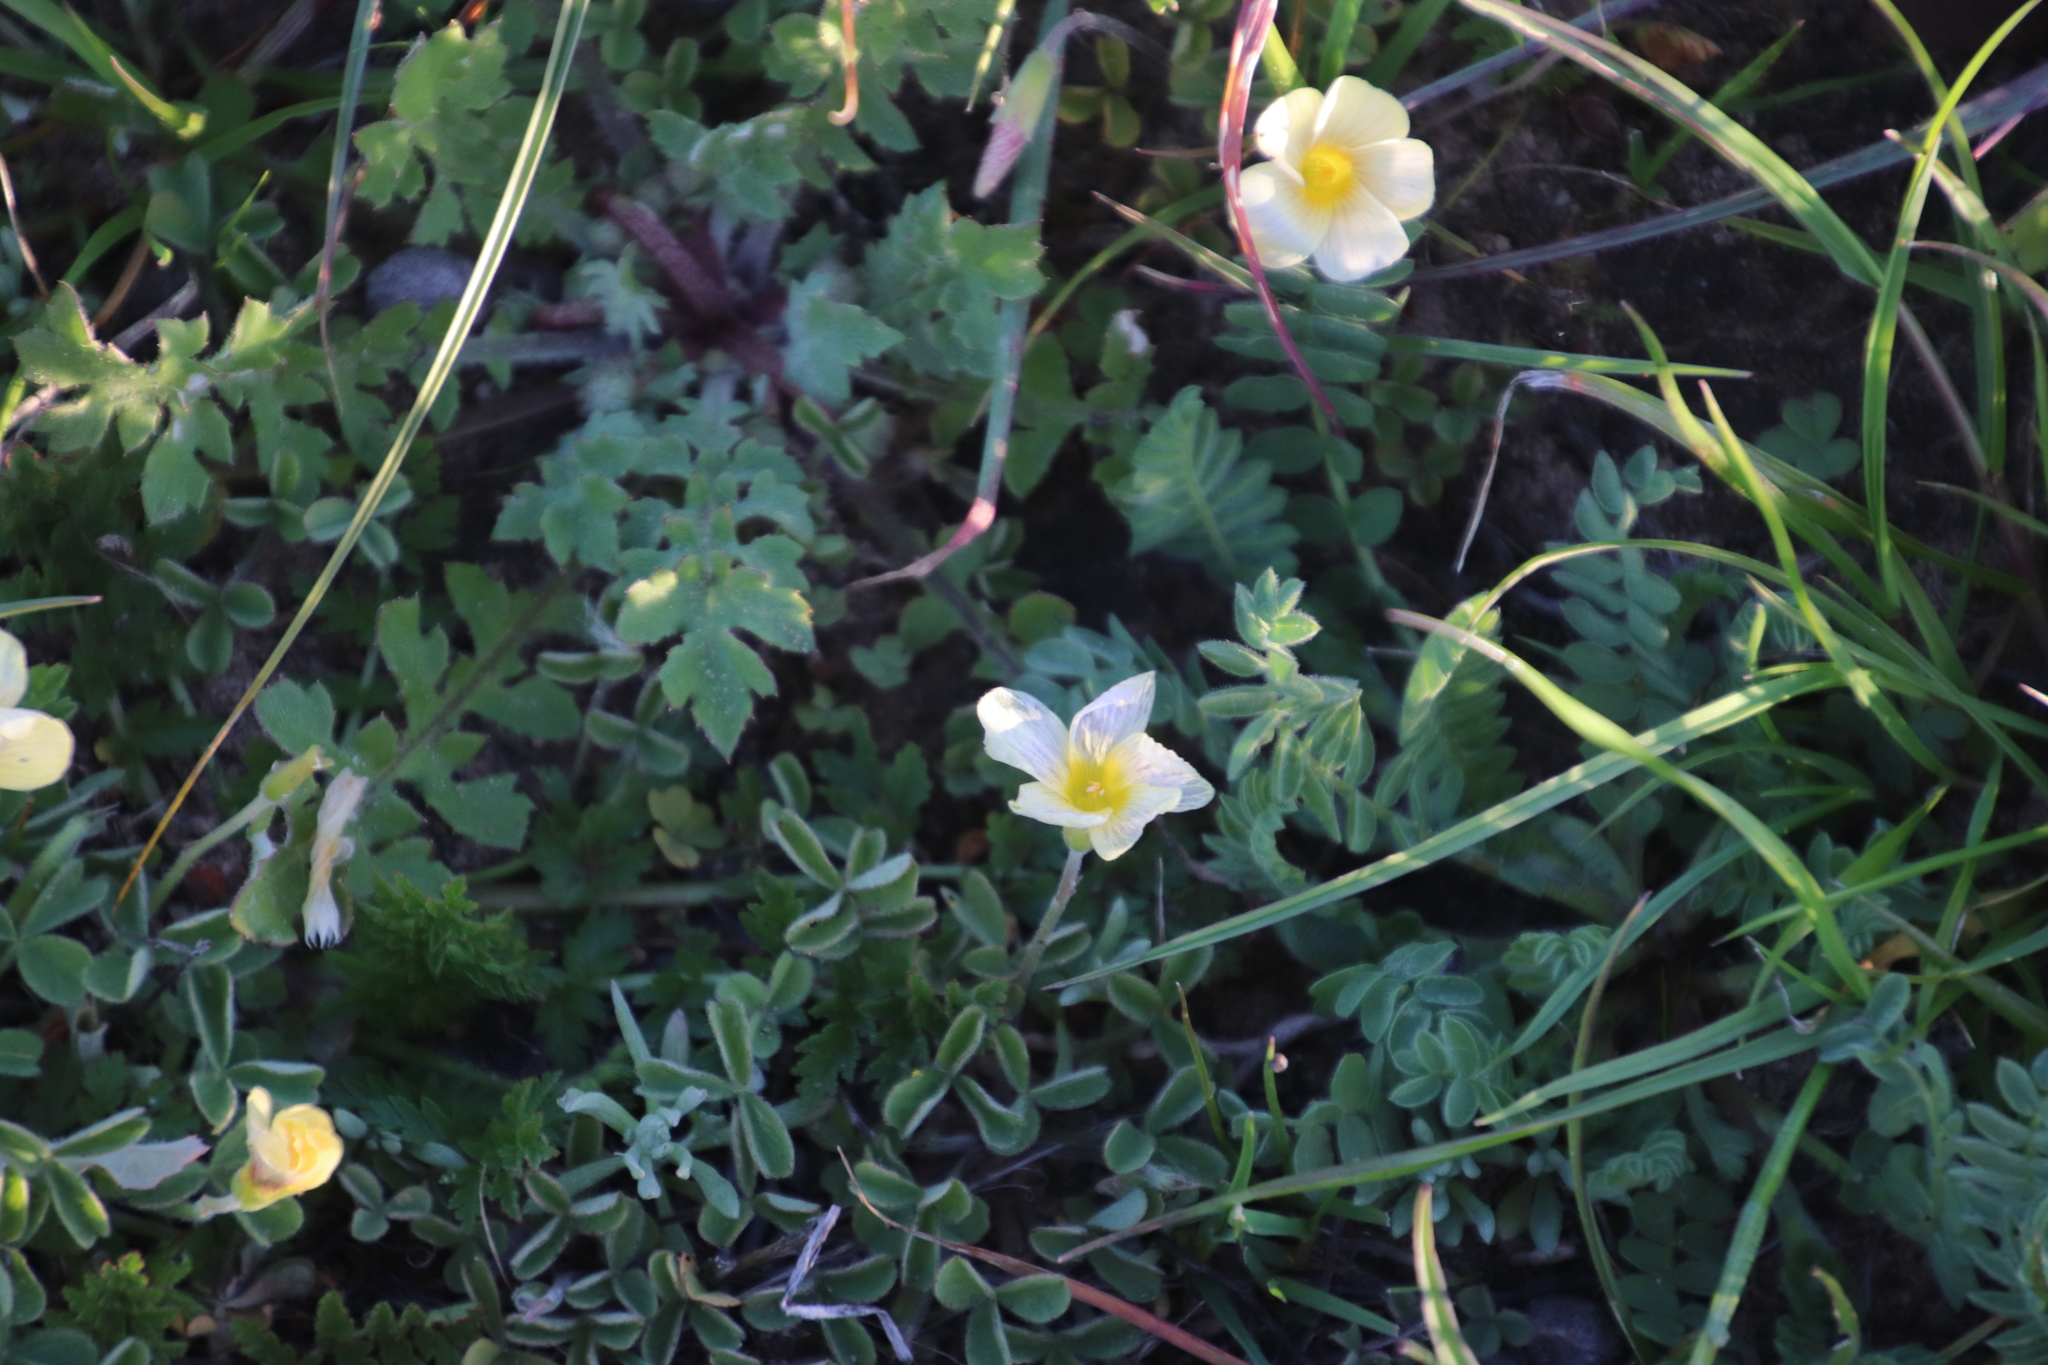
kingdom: Plantae
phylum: Tracheophyta
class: Magnoliopsida
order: Oxalidales
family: Oxalidaceae
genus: Oxalis
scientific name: Oxalis obtusa
